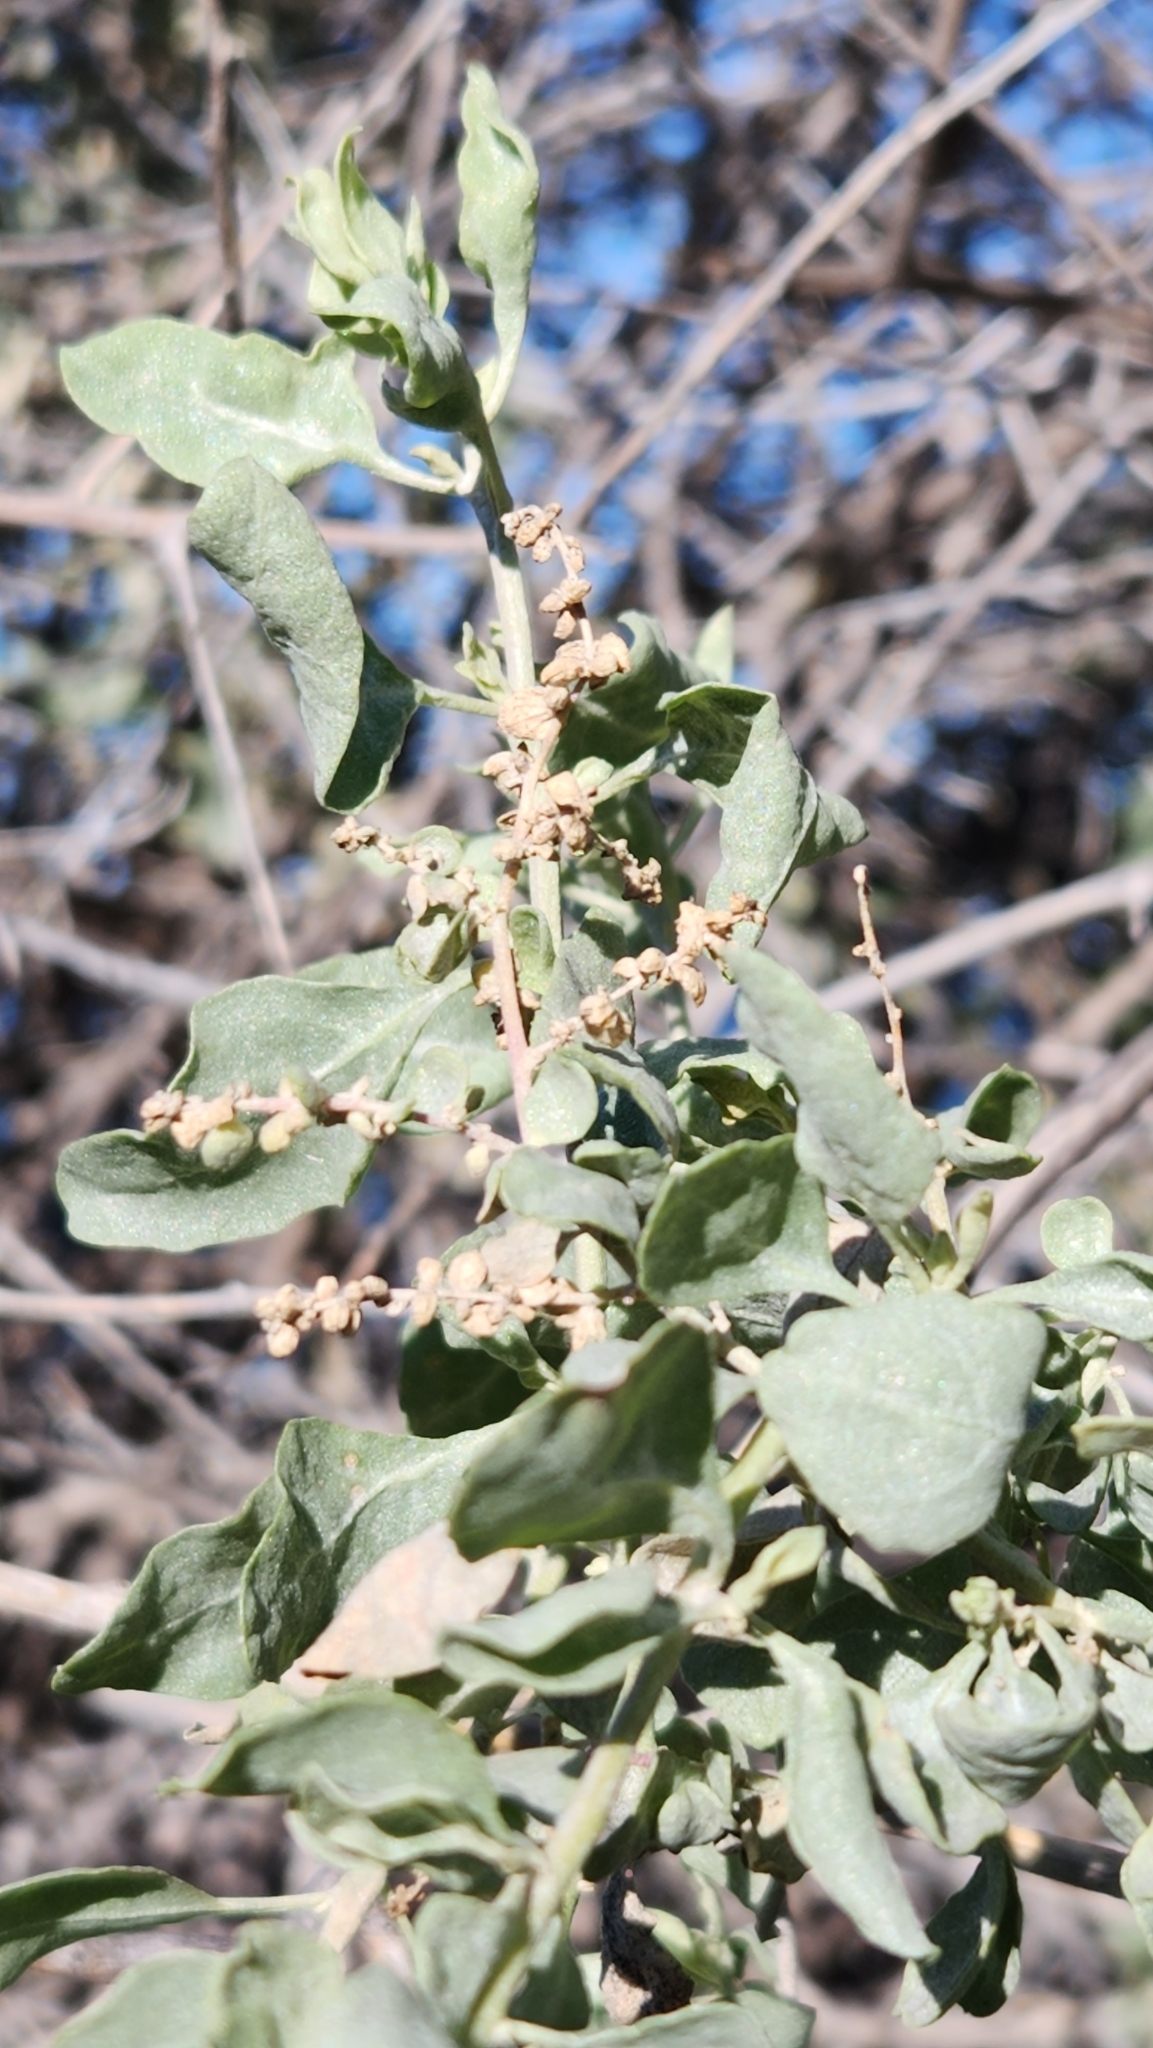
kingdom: Plantae
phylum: Tracheophyta
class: Magnoliopsida
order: Caryophyllales
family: Amaranthaceae
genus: Atriplex
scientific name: Atriplex lentiformis
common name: Big saltbush
